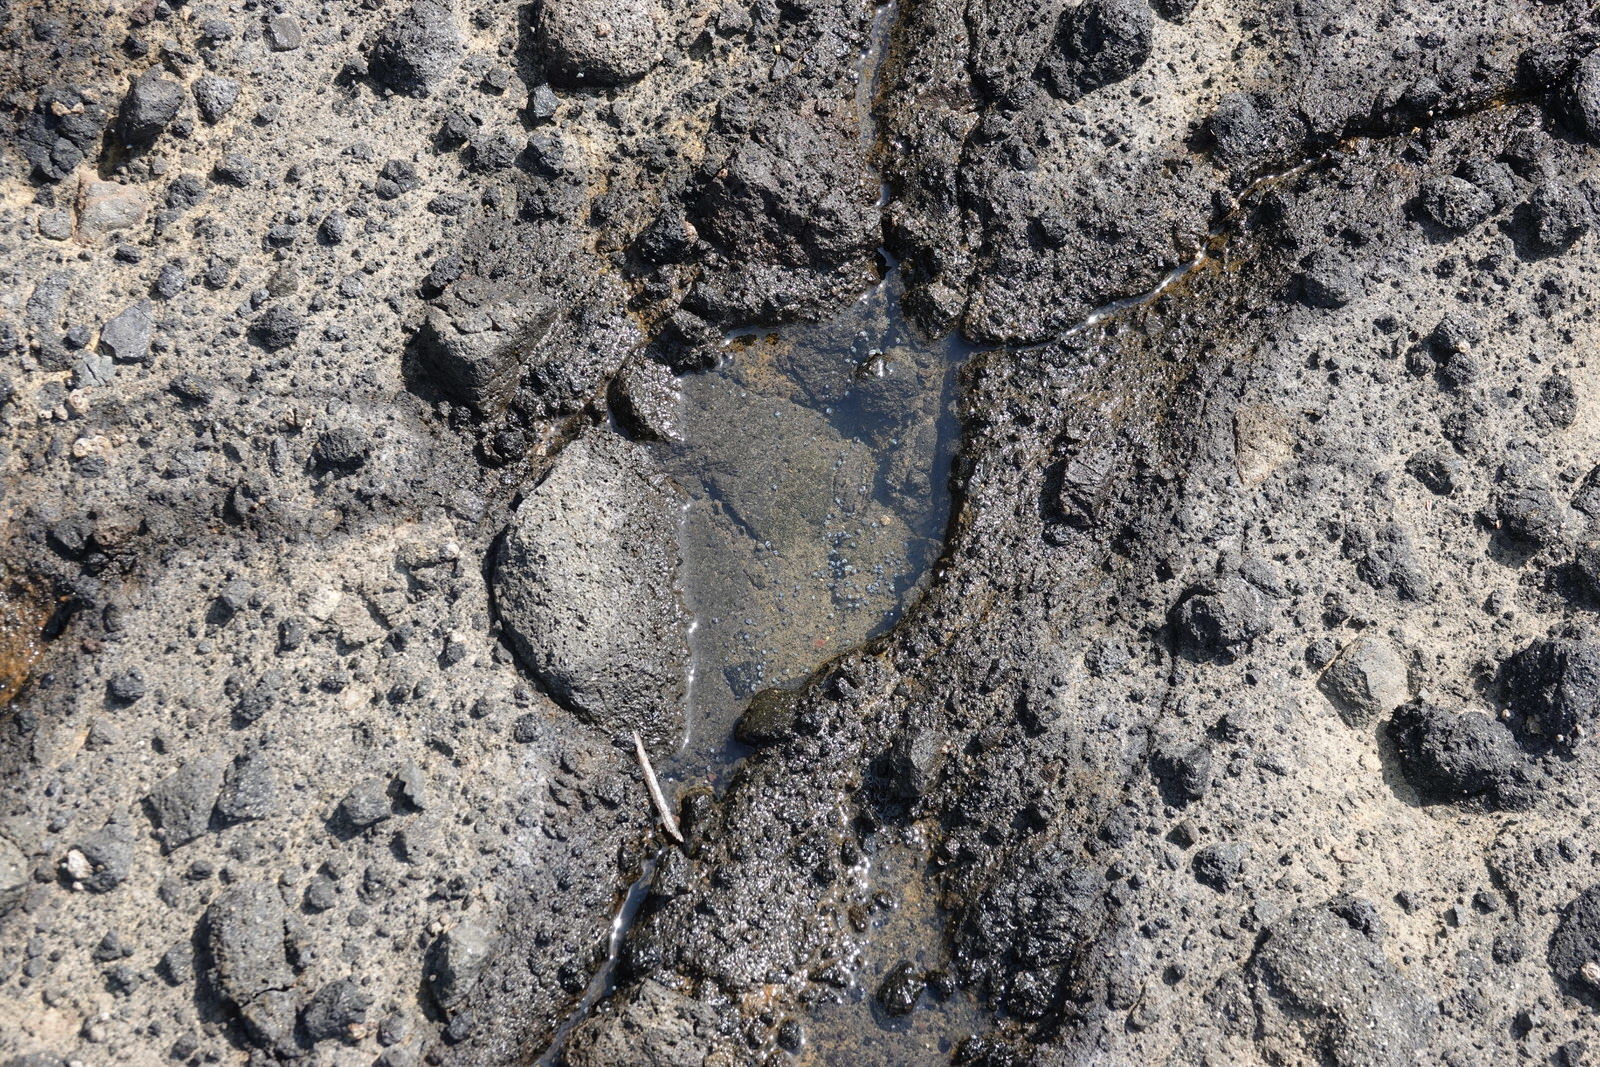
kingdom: Animalia
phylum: Mollusca
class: Gastropoda
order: Littorinimorpha
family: Littorinidae
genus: Austrolittorina
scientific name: Austrolittorina antipodum
